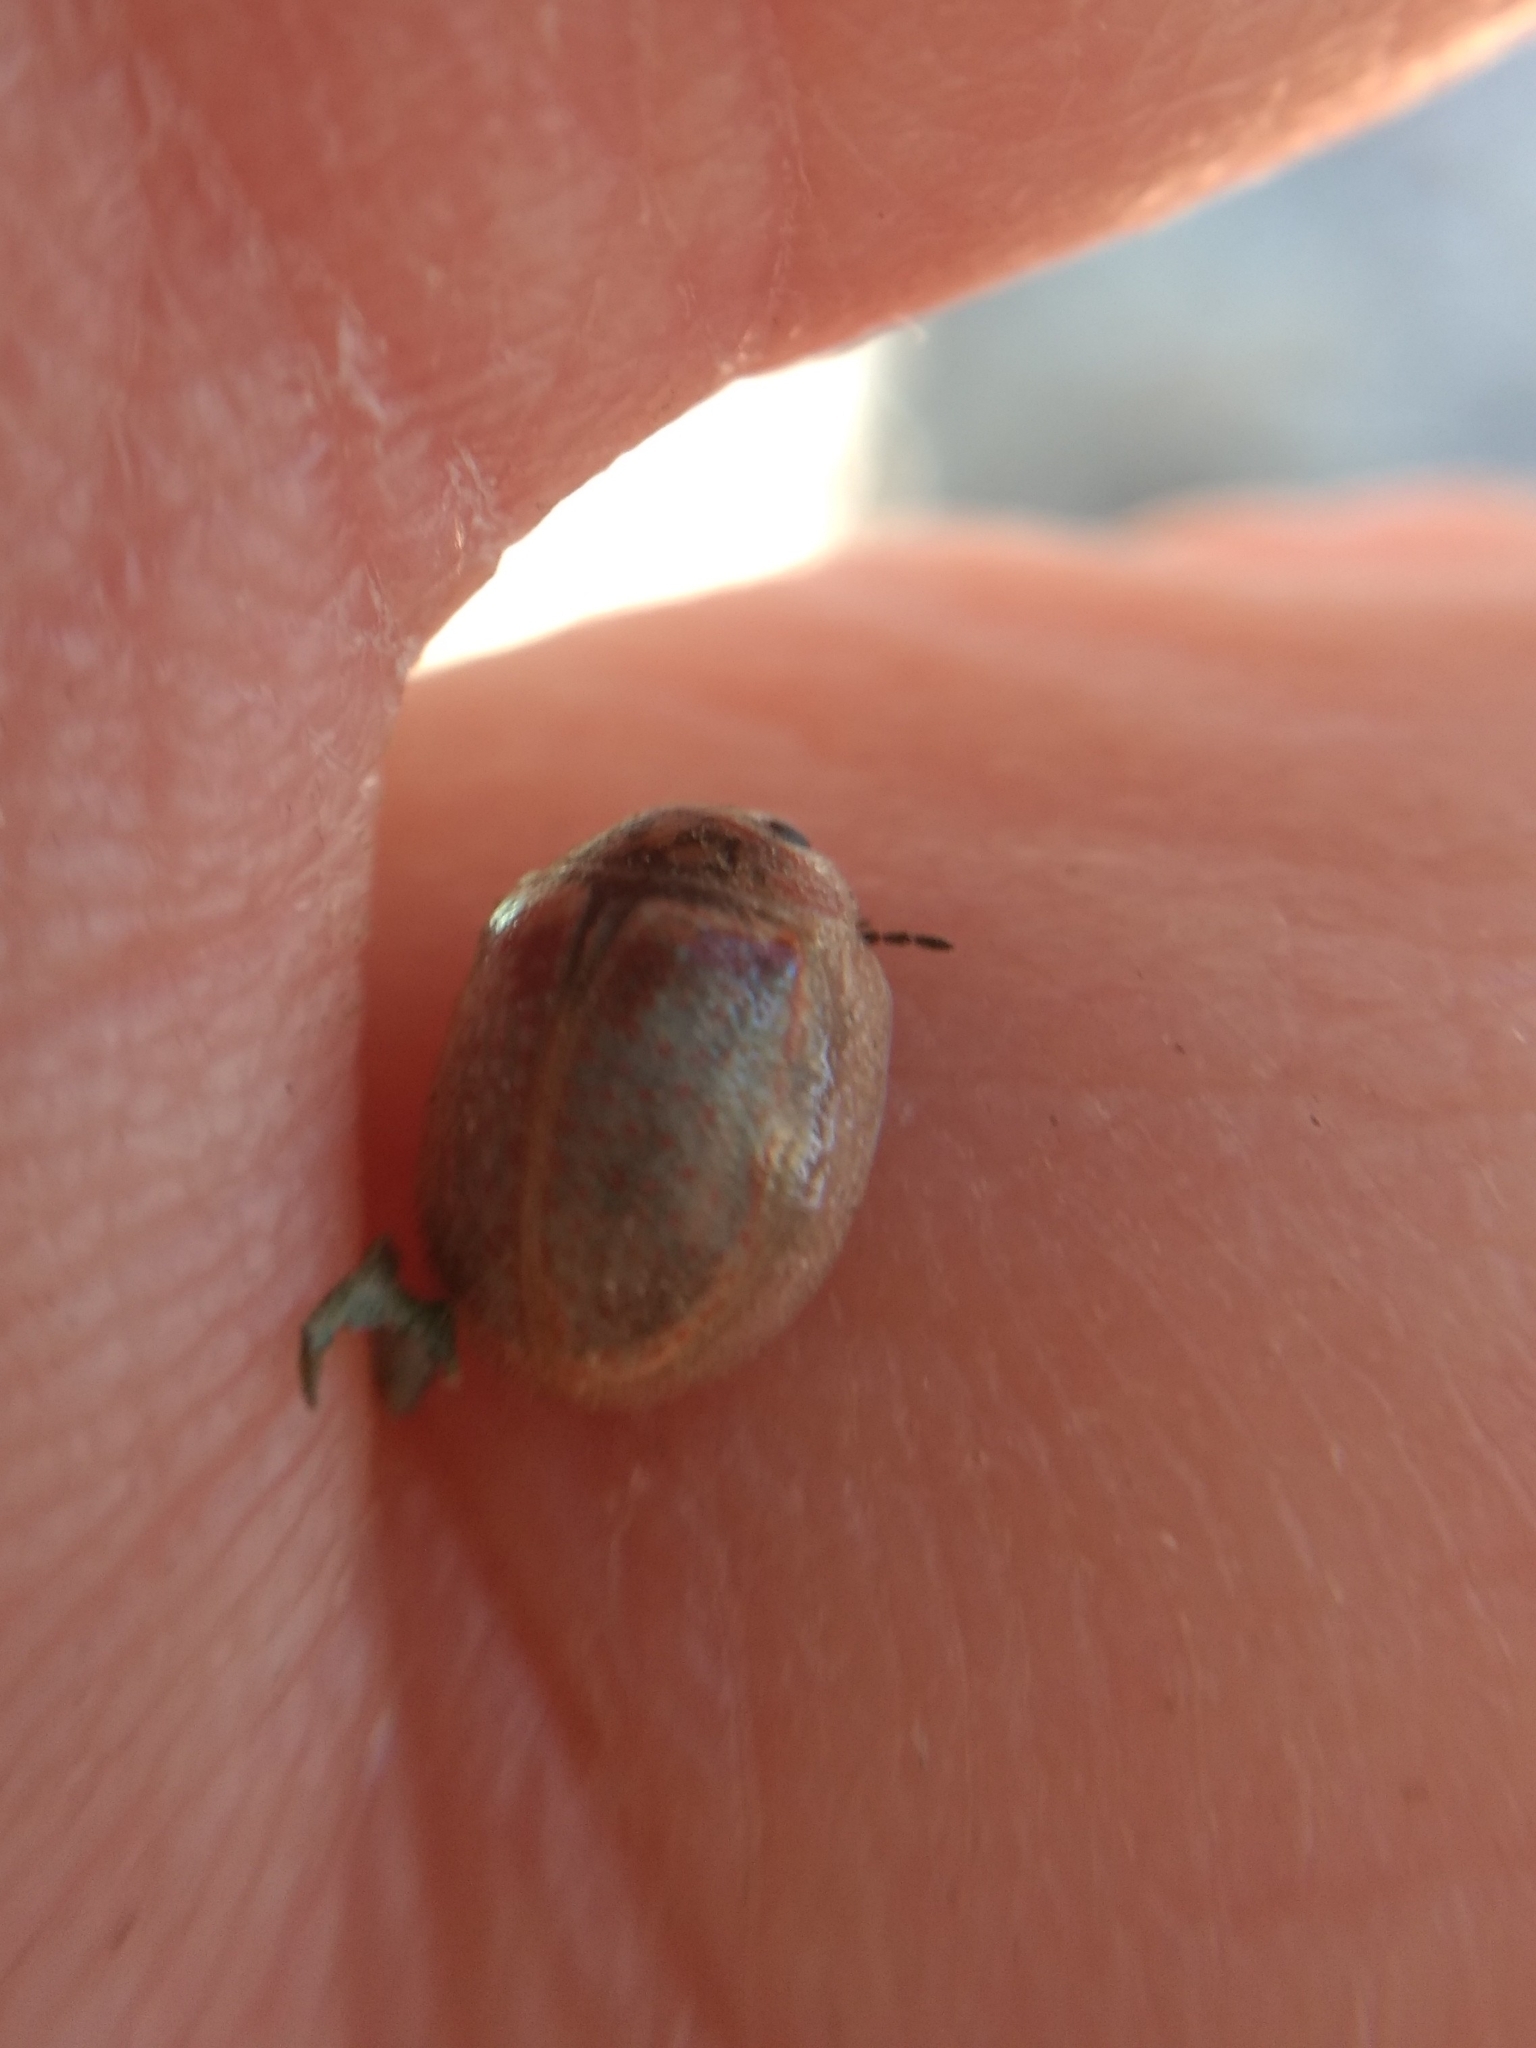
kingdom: Animalia
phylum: Arthropoda
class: Insecta
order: Coleoptera
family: Chrysomelidae
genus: Paropsisterna
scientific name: Paropsisterna m-fuscum
